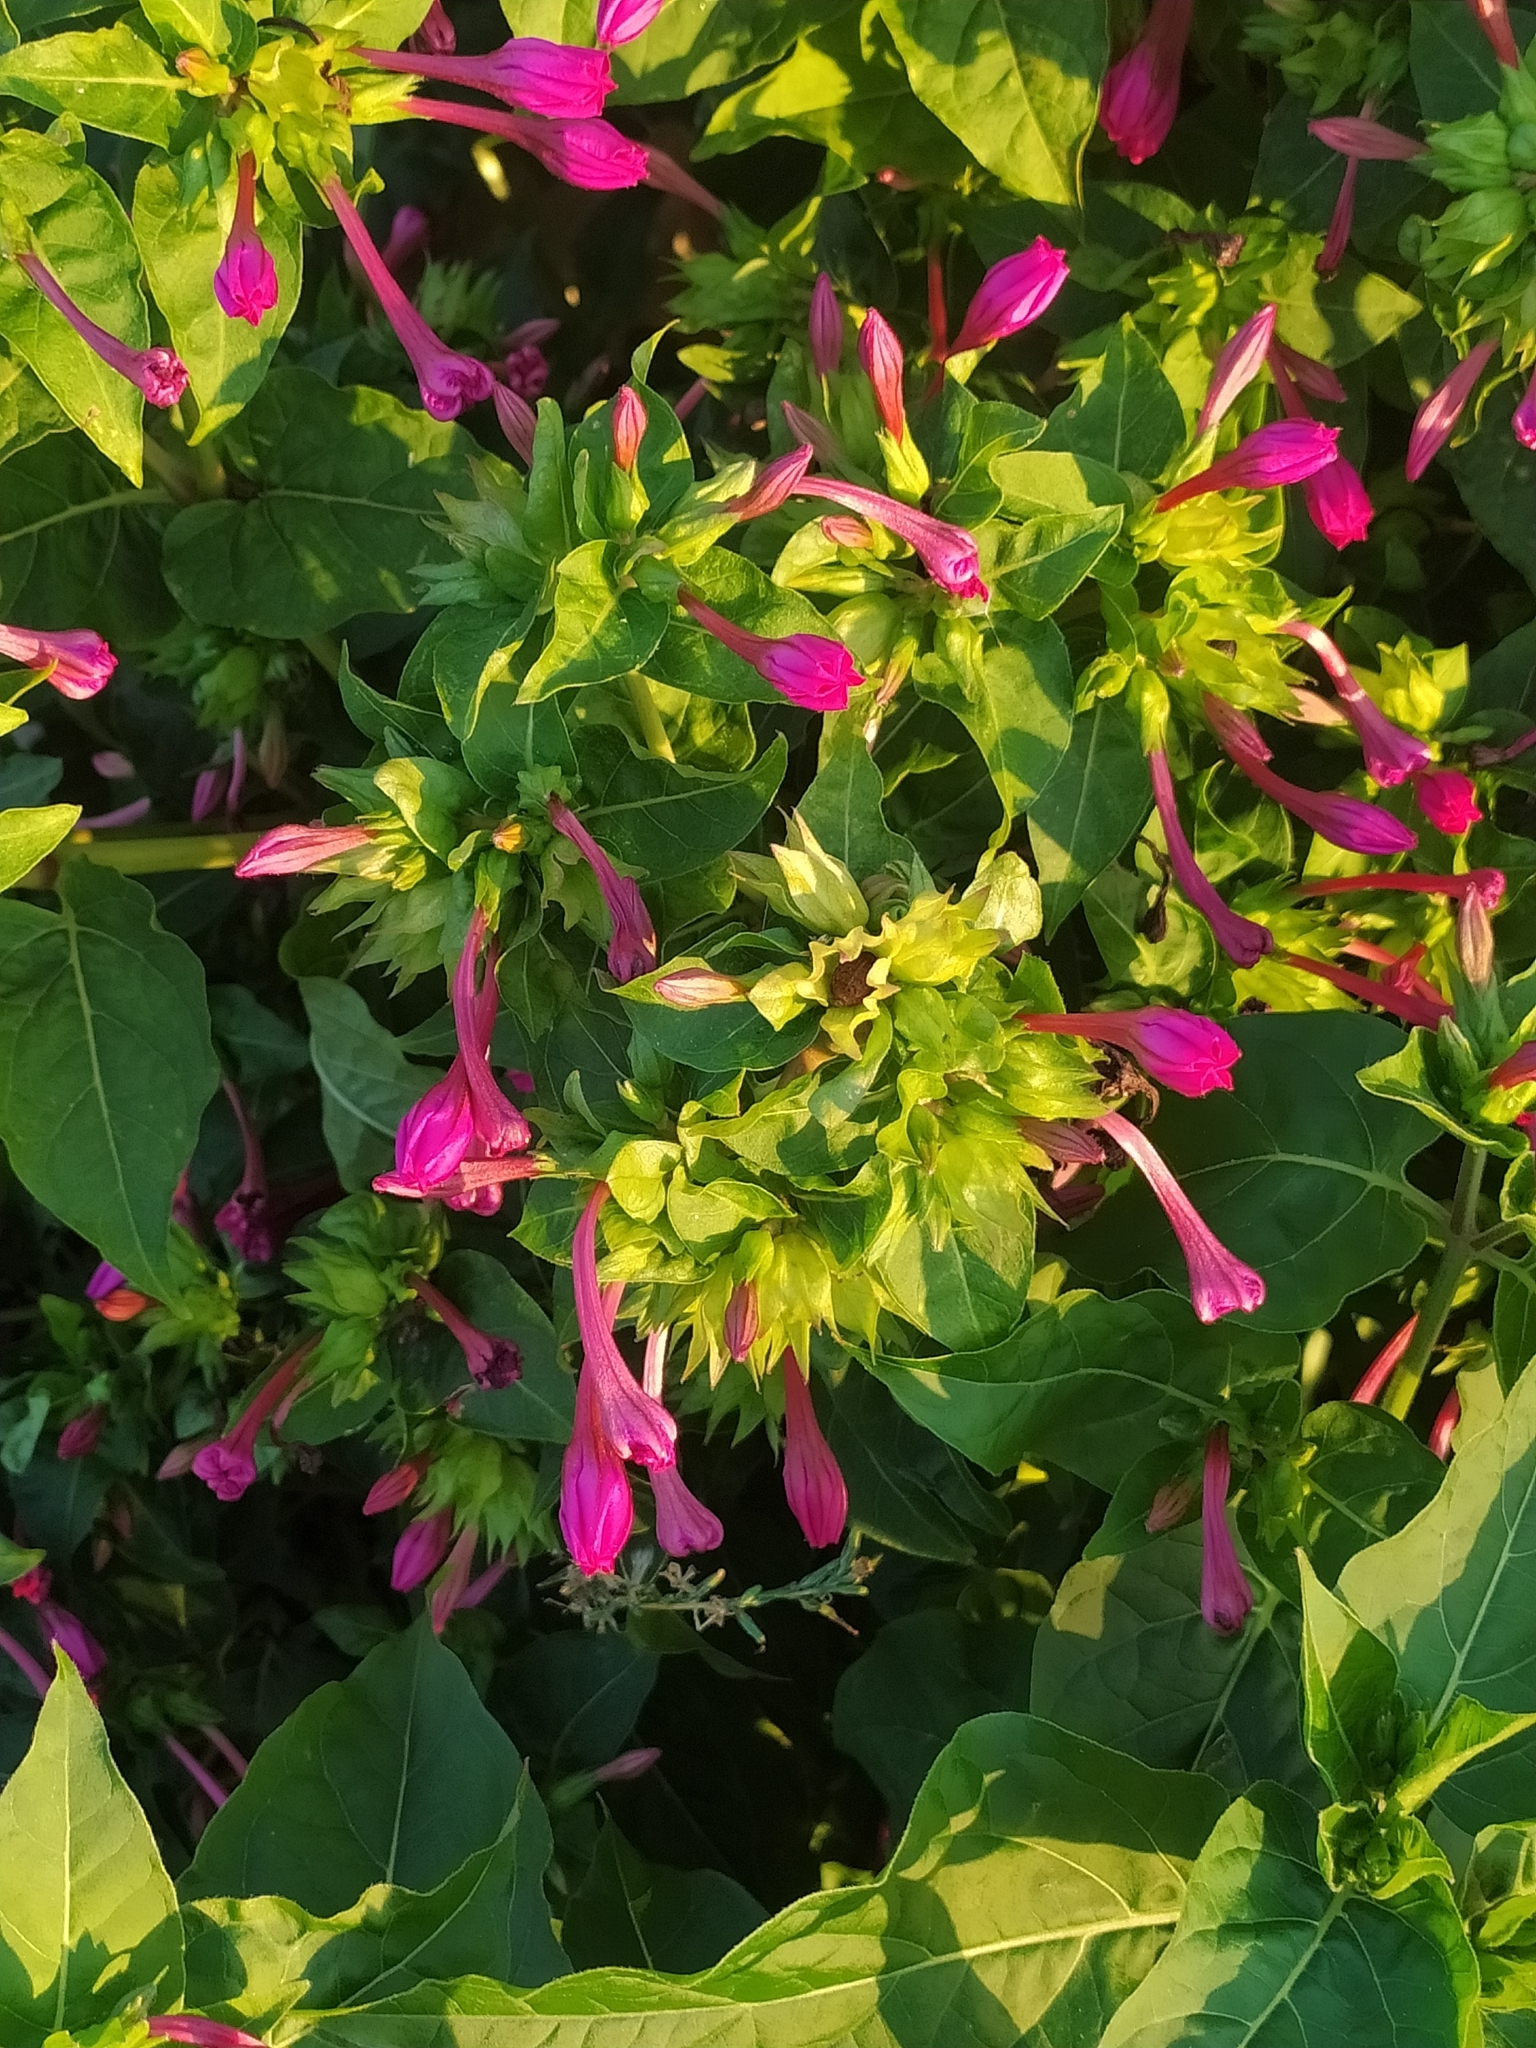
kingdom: Plantae
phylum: Tracheophyta
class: Magnoliopsida
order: Caryophyllales
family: Nyctaginaceae
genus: Mirabilis
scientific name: Mirabilis jalapa
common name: Marvel-of-peru
